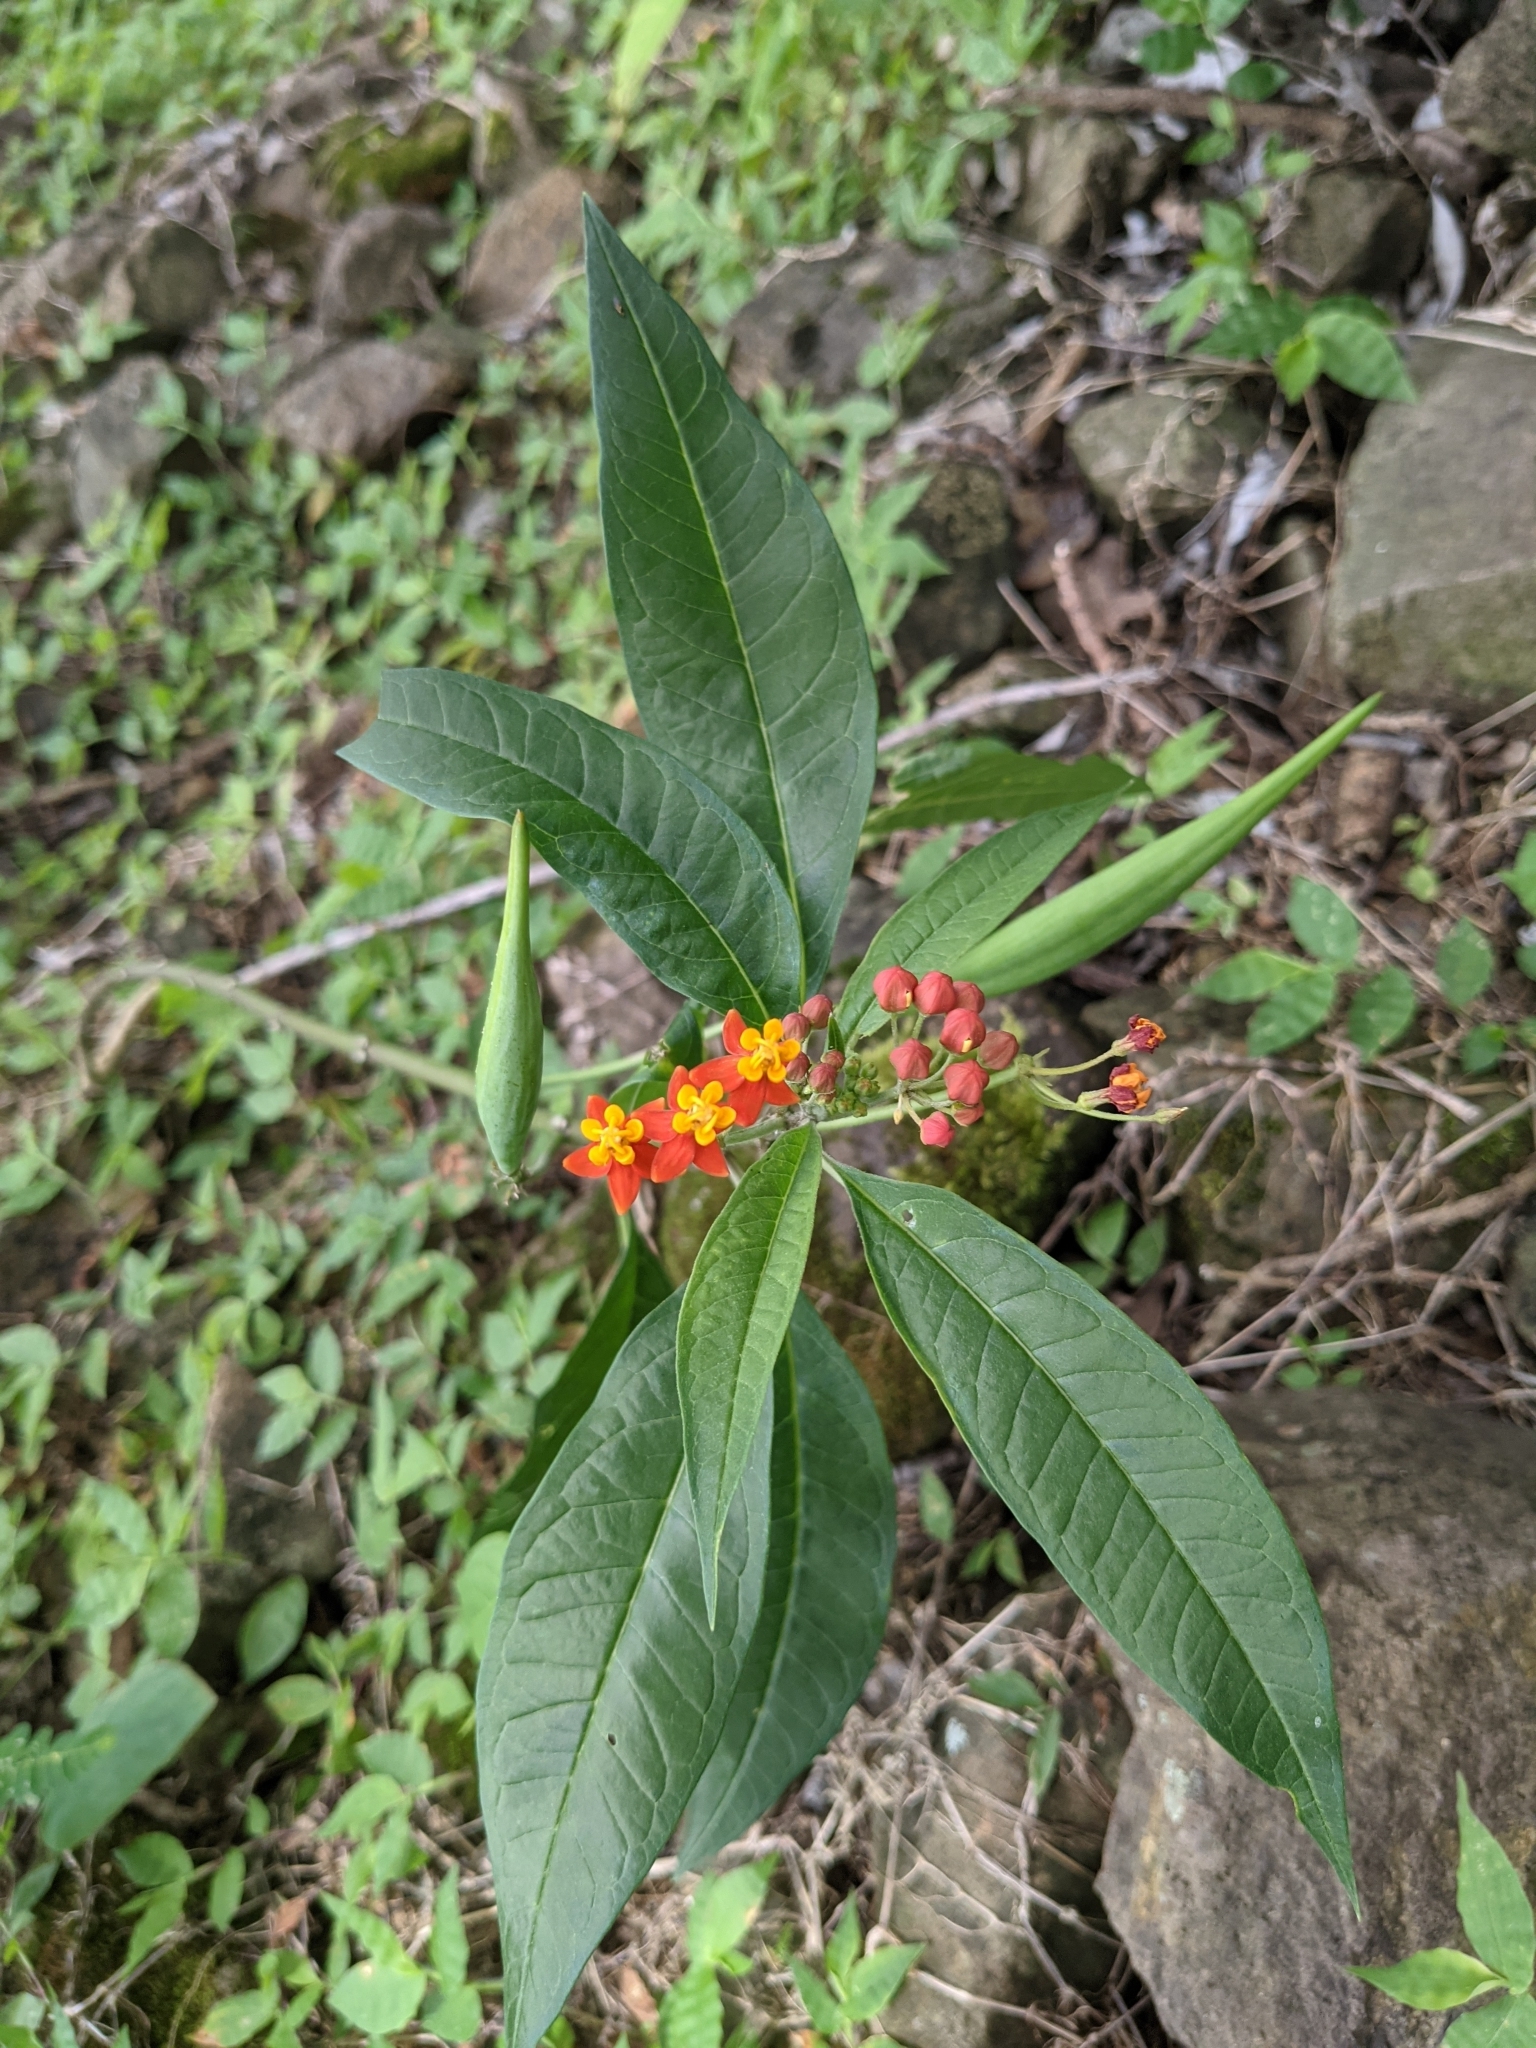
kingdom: Plantae
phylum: Tracheophyta
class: Magnoliopsida
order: Gentianales
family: Apocynaceae
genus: Asclepias
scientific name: Asclepias curassavica
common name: Bloodflower
